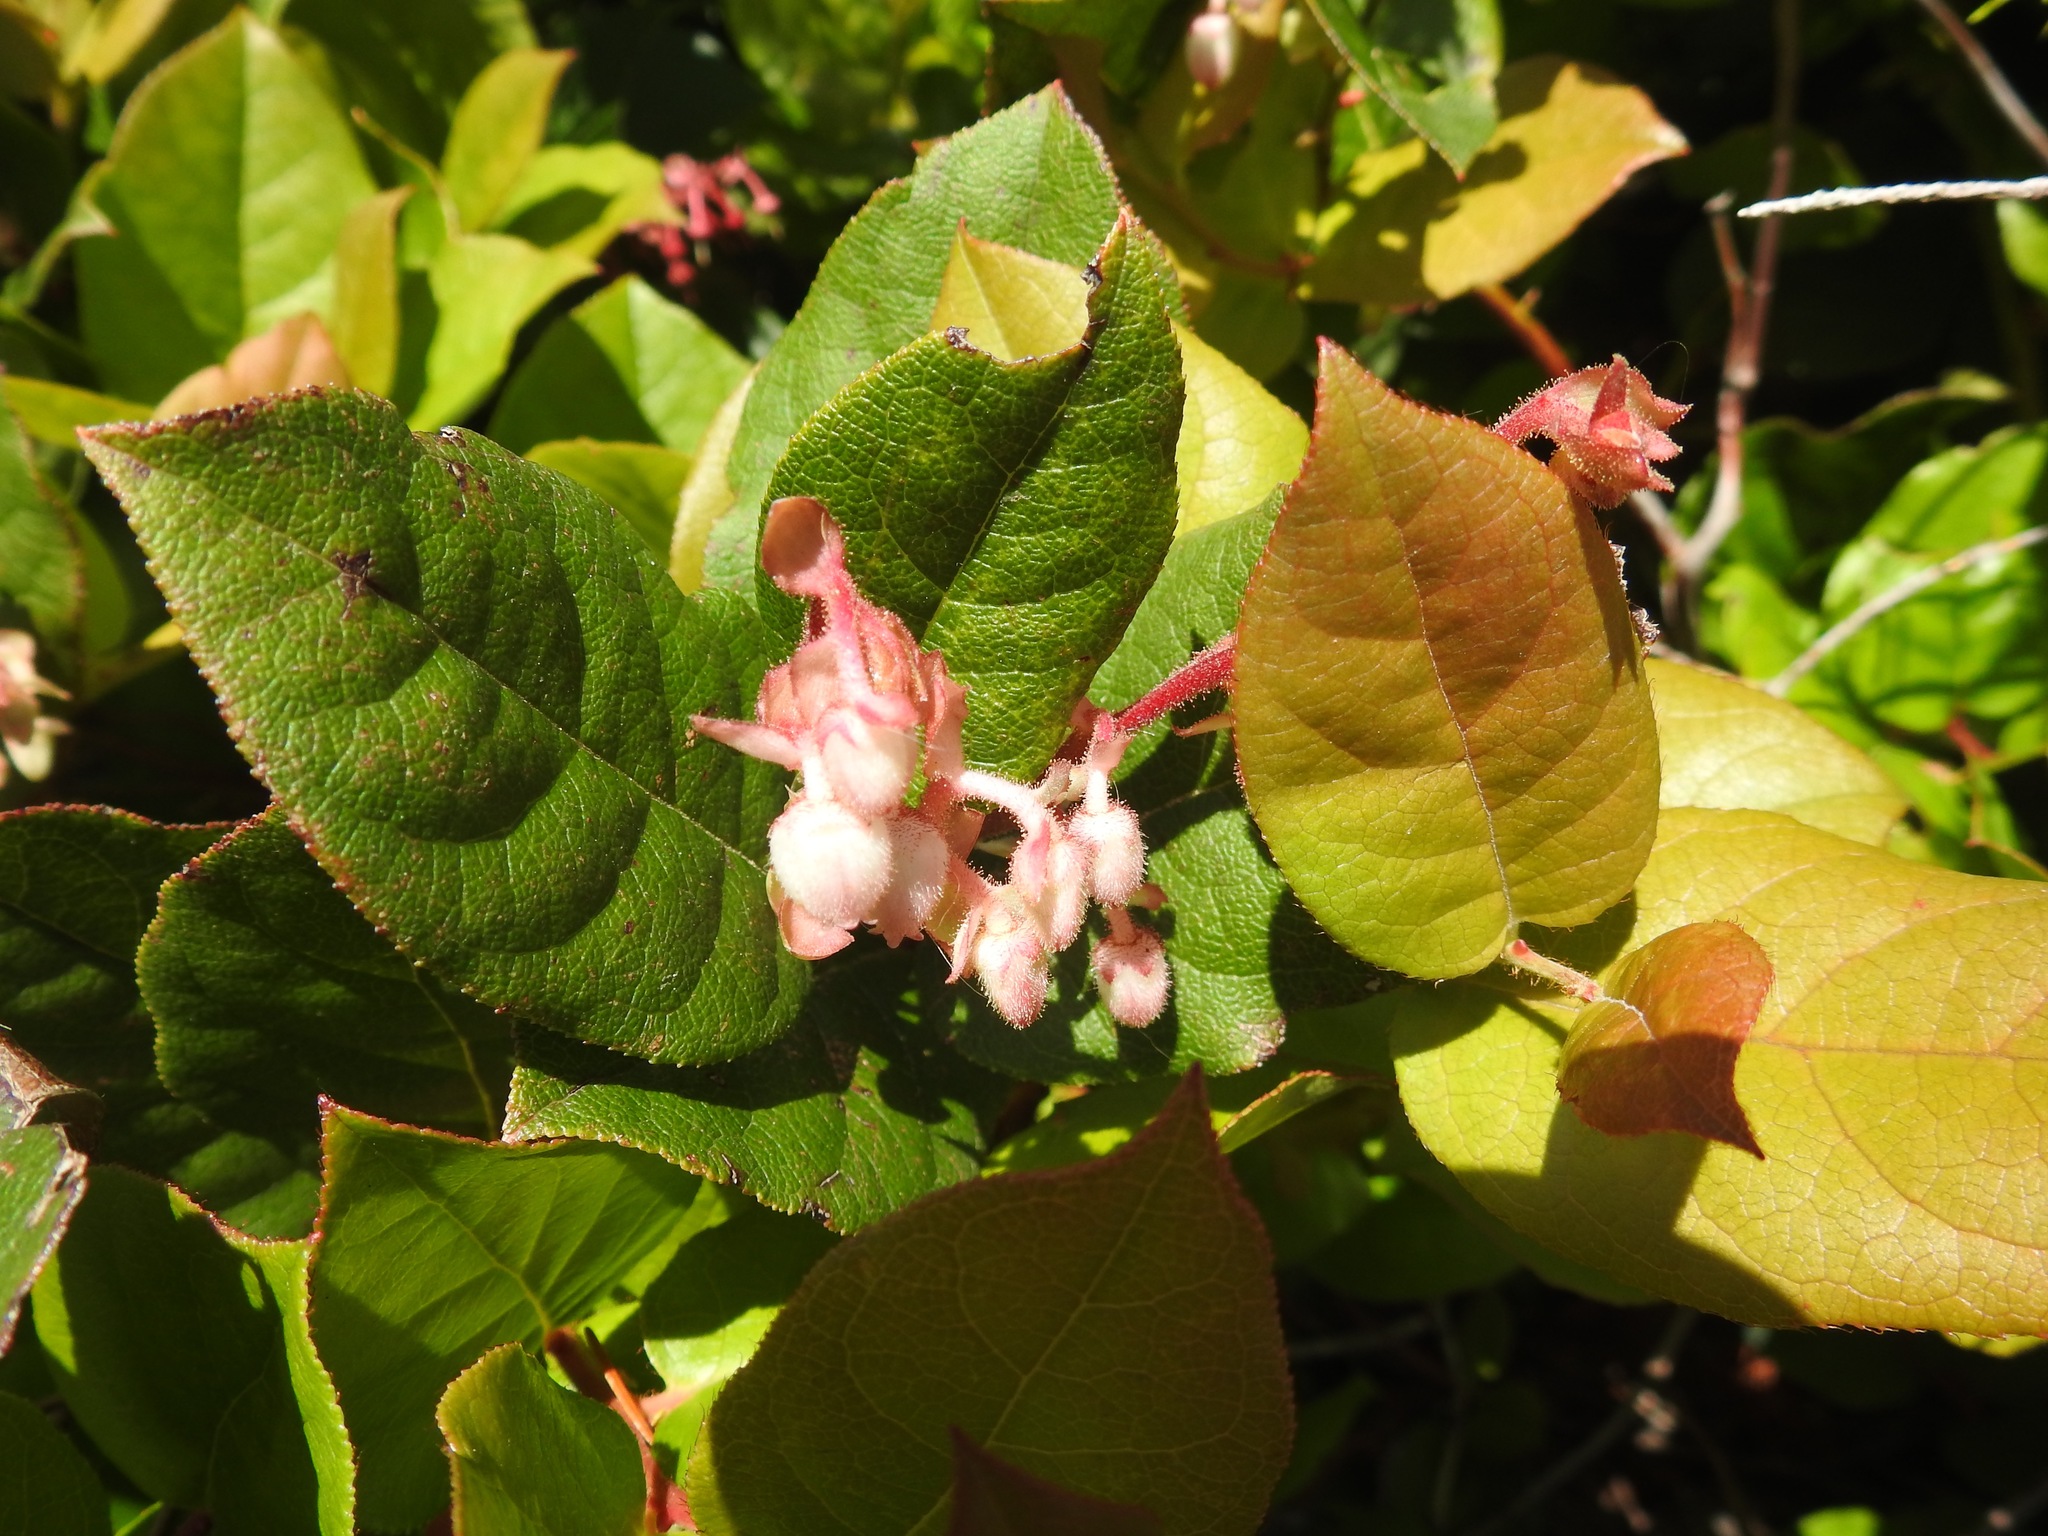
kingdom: Plantae
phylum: Tracheophyta
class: Magnoliopsida
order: Ericales
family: Ericaceae
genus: Gaultheria
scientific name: Gaultheria shallon
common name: Shallon
